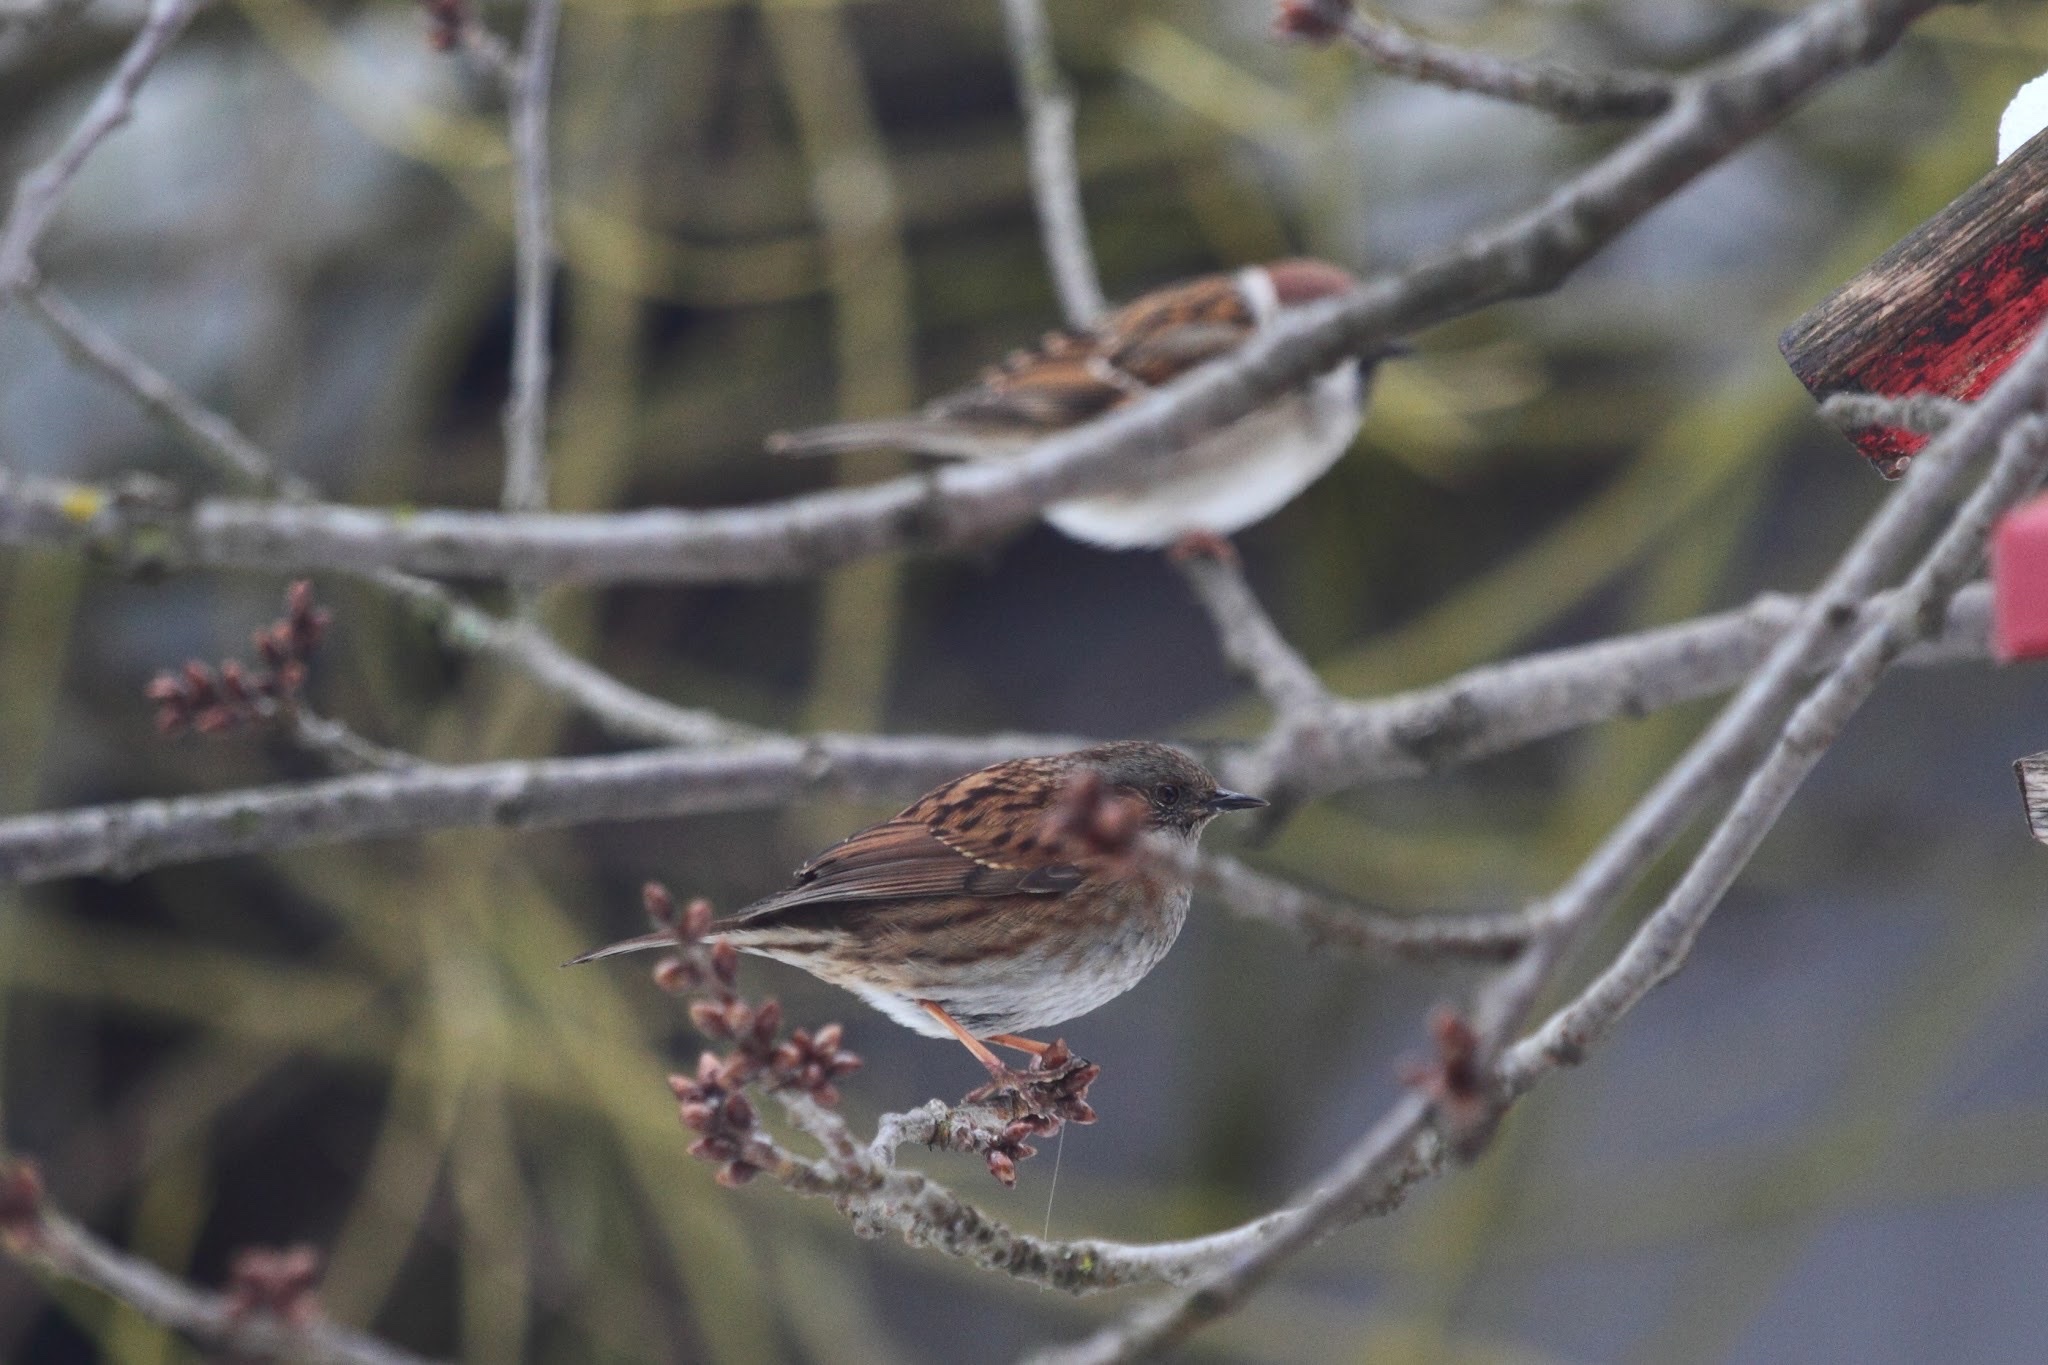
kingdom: Animalia
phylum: Chordata
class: Aves
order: Passeriformes
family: Prunellidae
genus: Prunella
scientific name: Prunella modularis
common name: Dunnock
